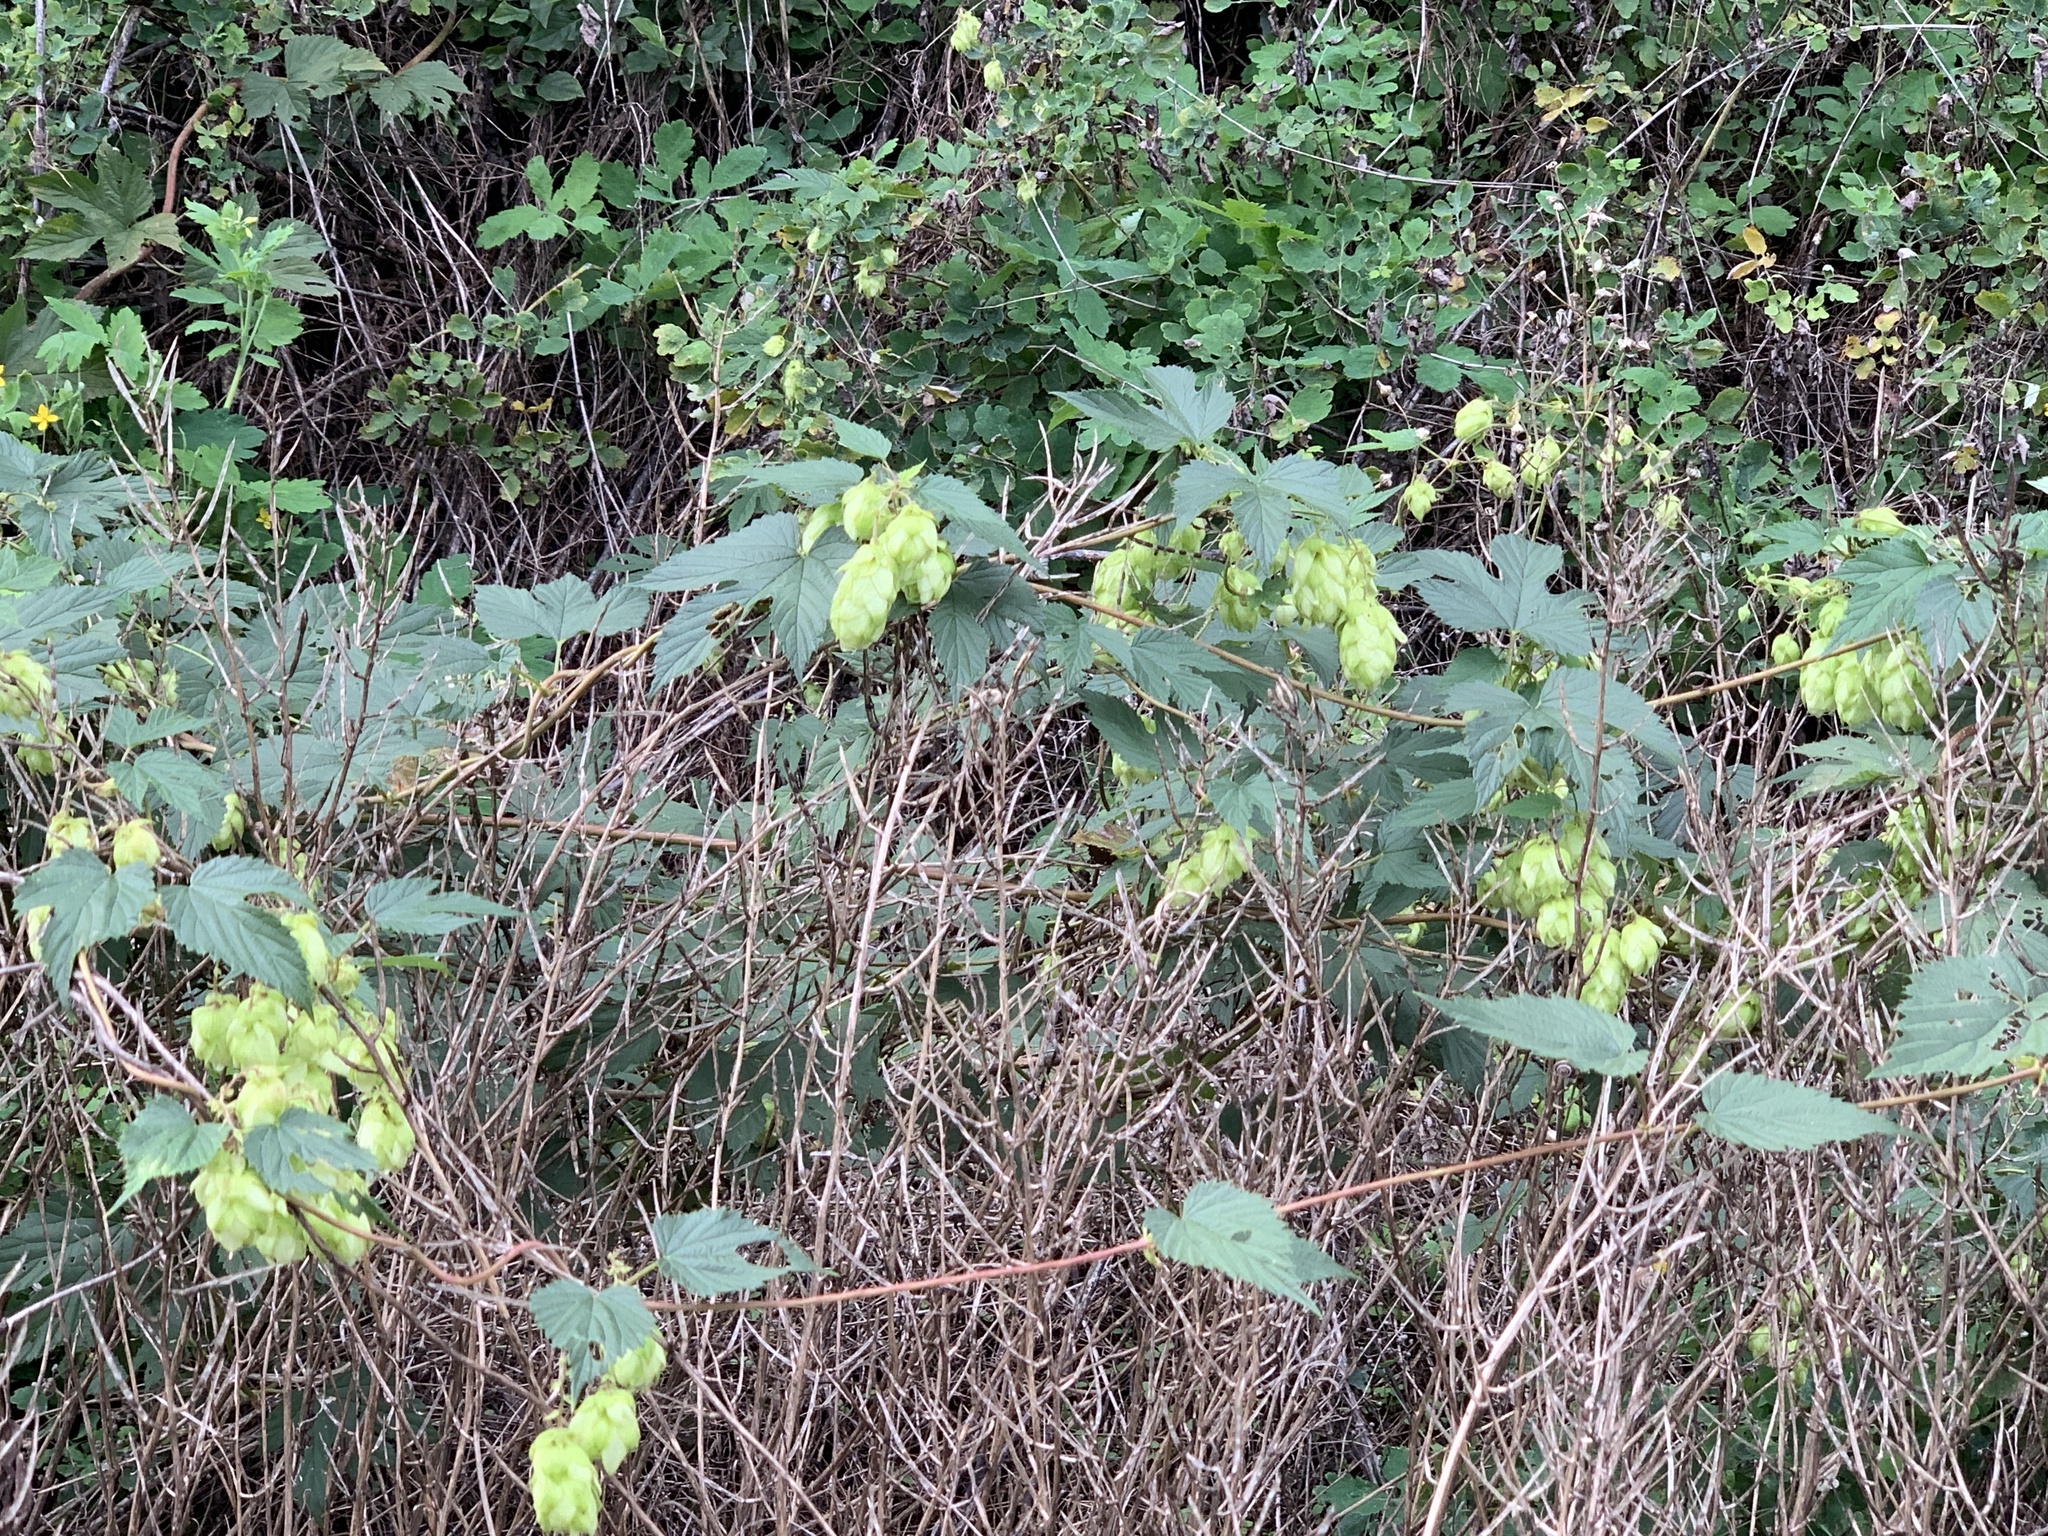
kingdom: Plantae
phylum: Tracheophyta
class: Magnoliopsida
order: Rosales
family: Cannabaceae
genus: Humulus
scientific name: Humulus lupulus
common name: Hop
